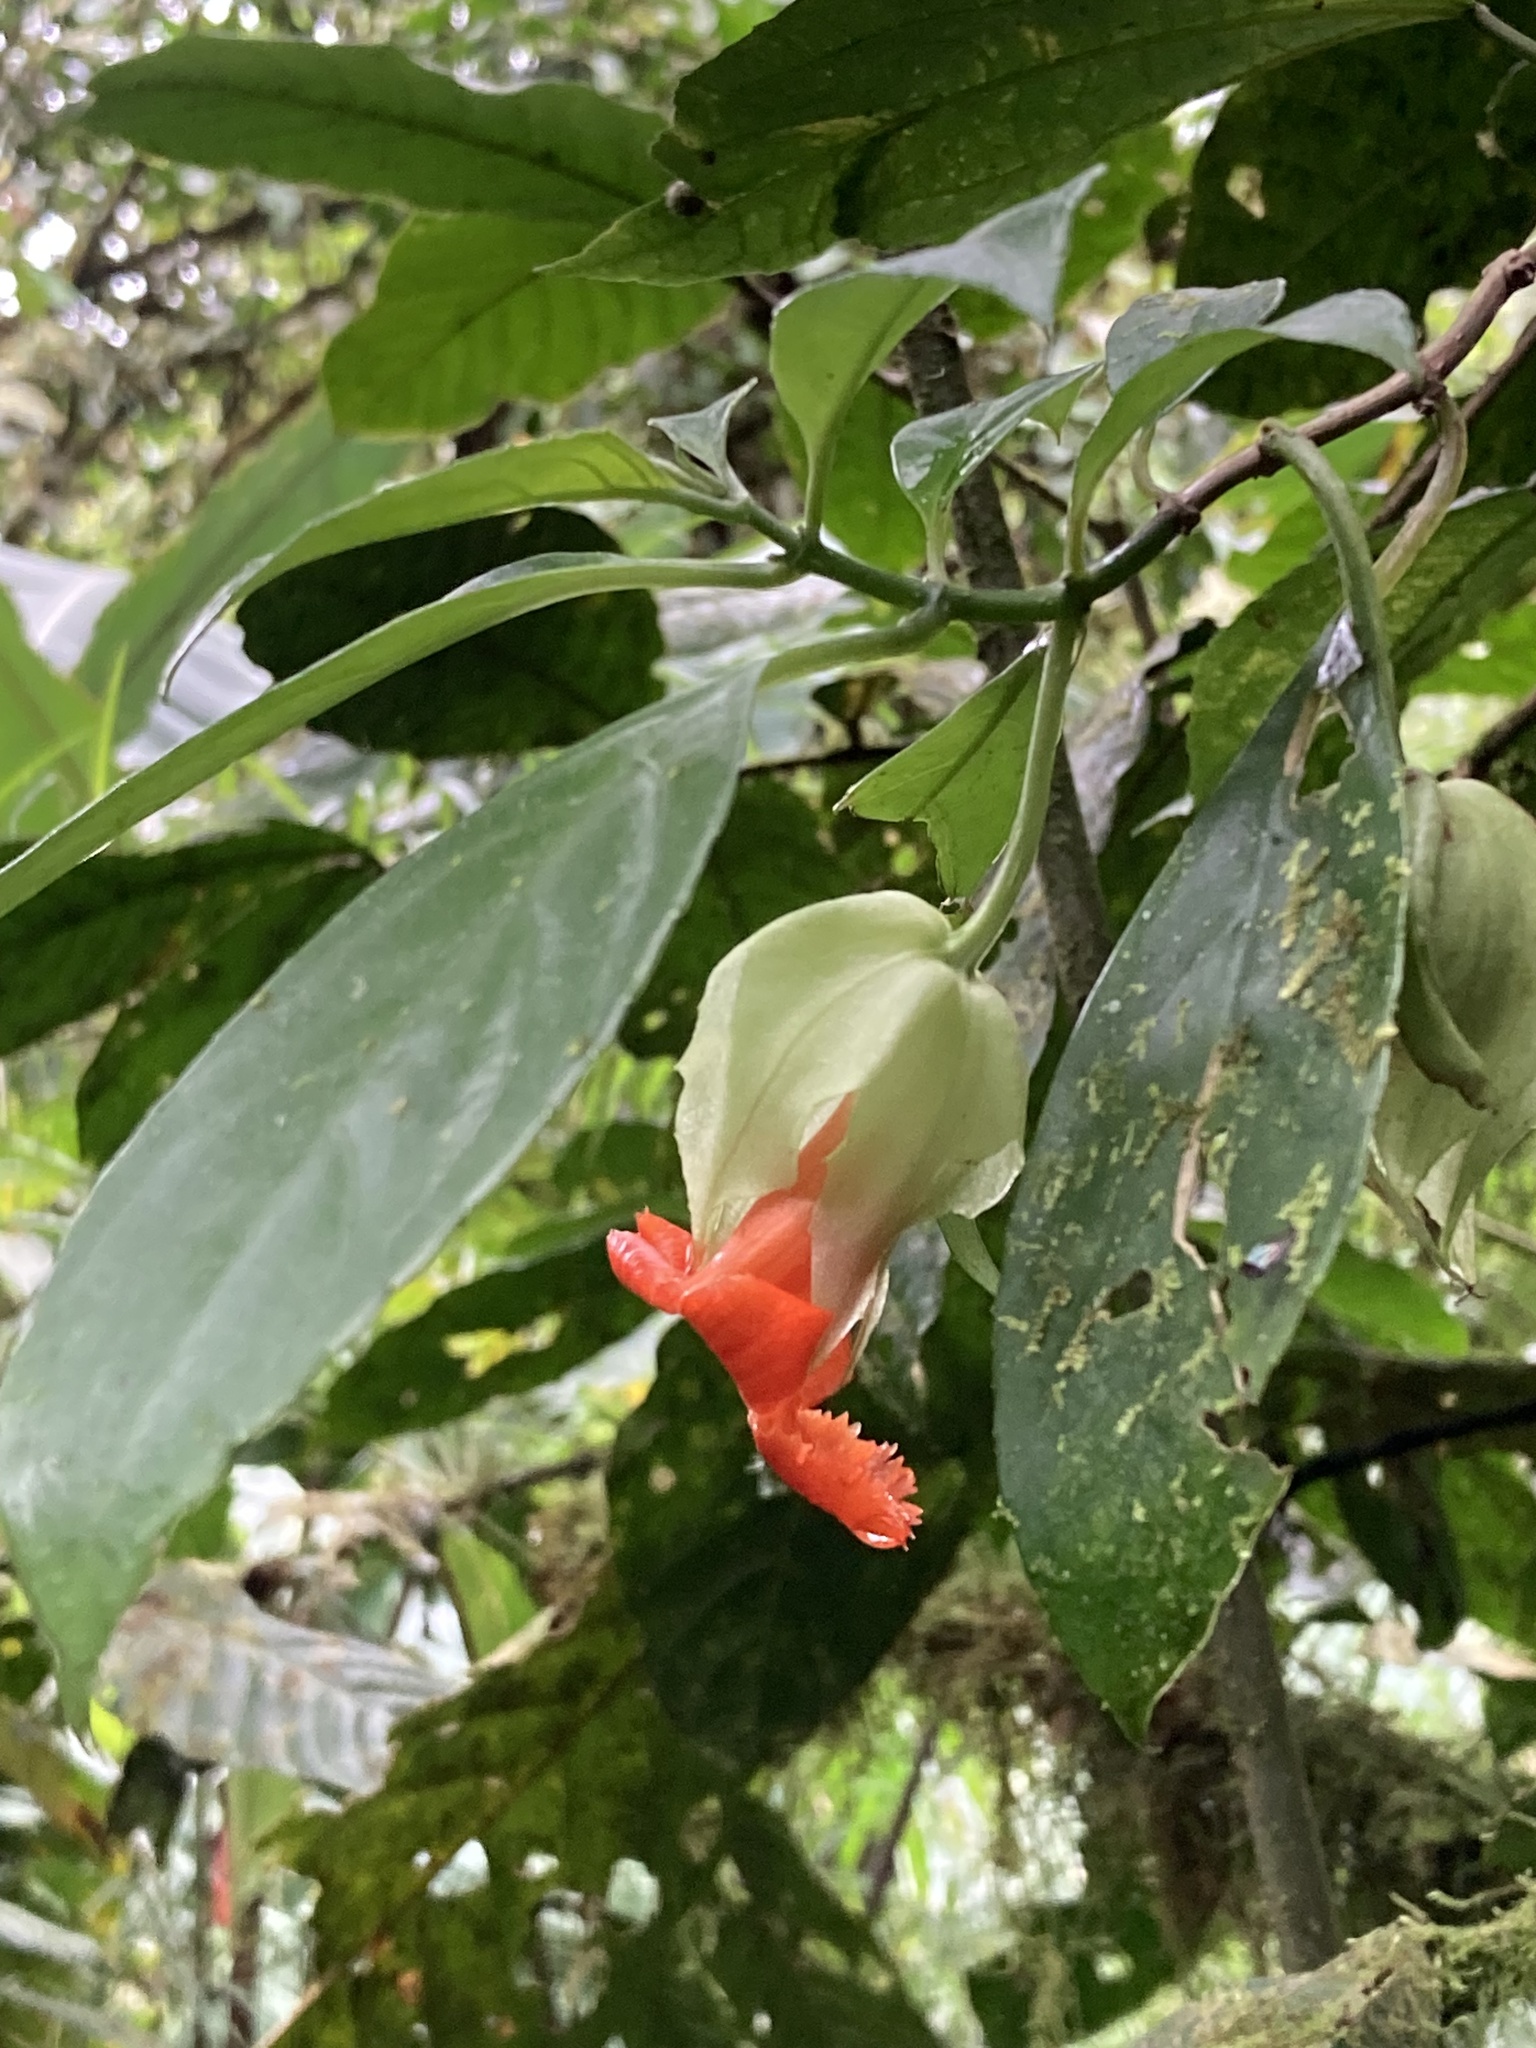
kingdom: Plantae
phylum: Tracheophyta
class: Magnoliopsida
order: Lamiales
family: Gesneriaceae
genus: Drymonia
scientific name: Drymonia rubra
